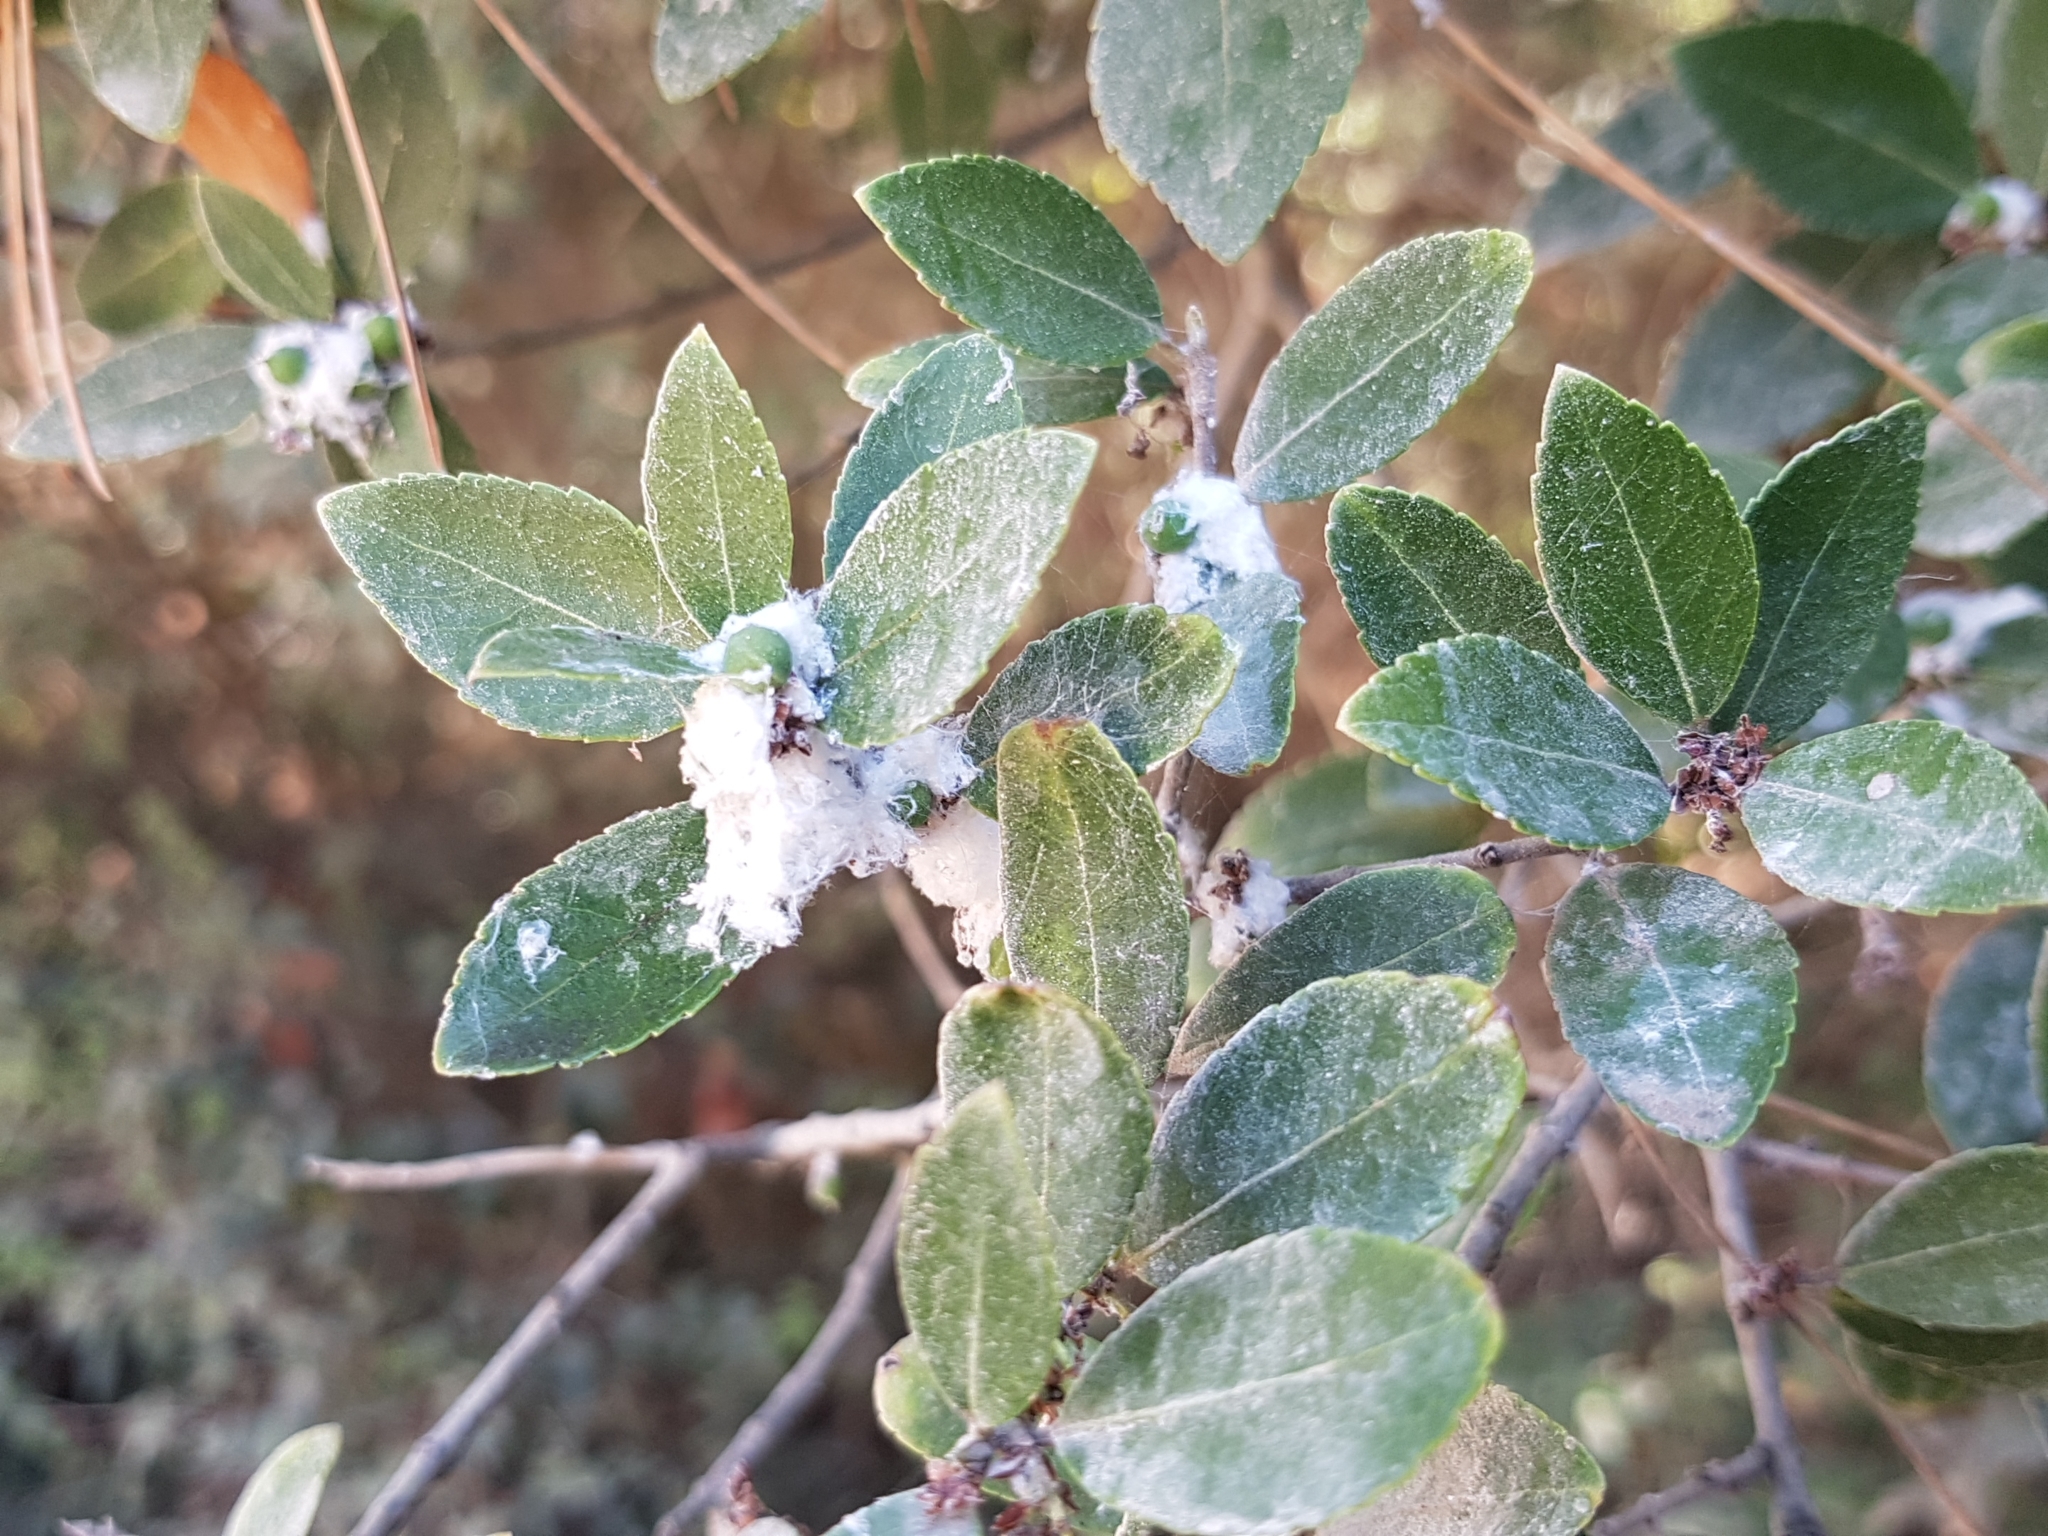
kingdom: Plantae
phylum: Tracheophyta
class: Magnoliopsida
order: Lamiales
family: Oleaceae
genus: Phillyrea
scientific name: Phillyrea latifolia
